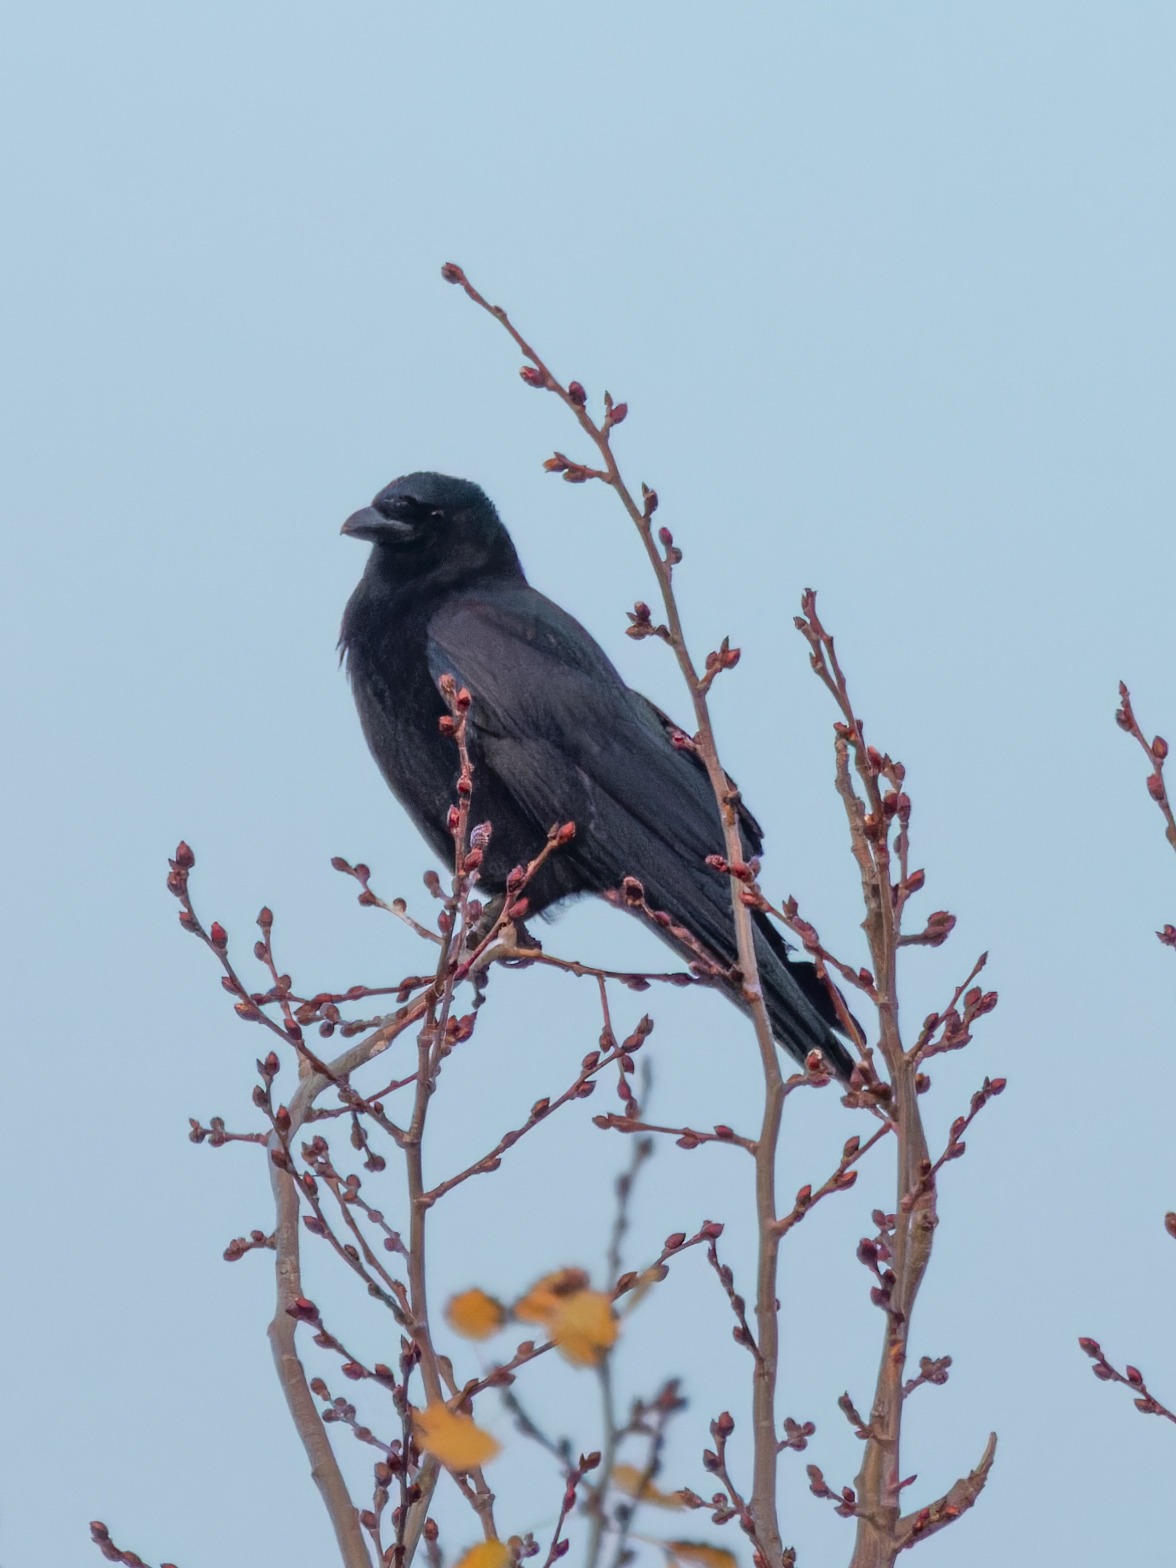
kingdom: Animalia
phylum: Chordata
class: Aves
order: Passeriformes
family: Corvidae
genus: Corvus
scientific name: Corvus corone
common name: Carrion crow
